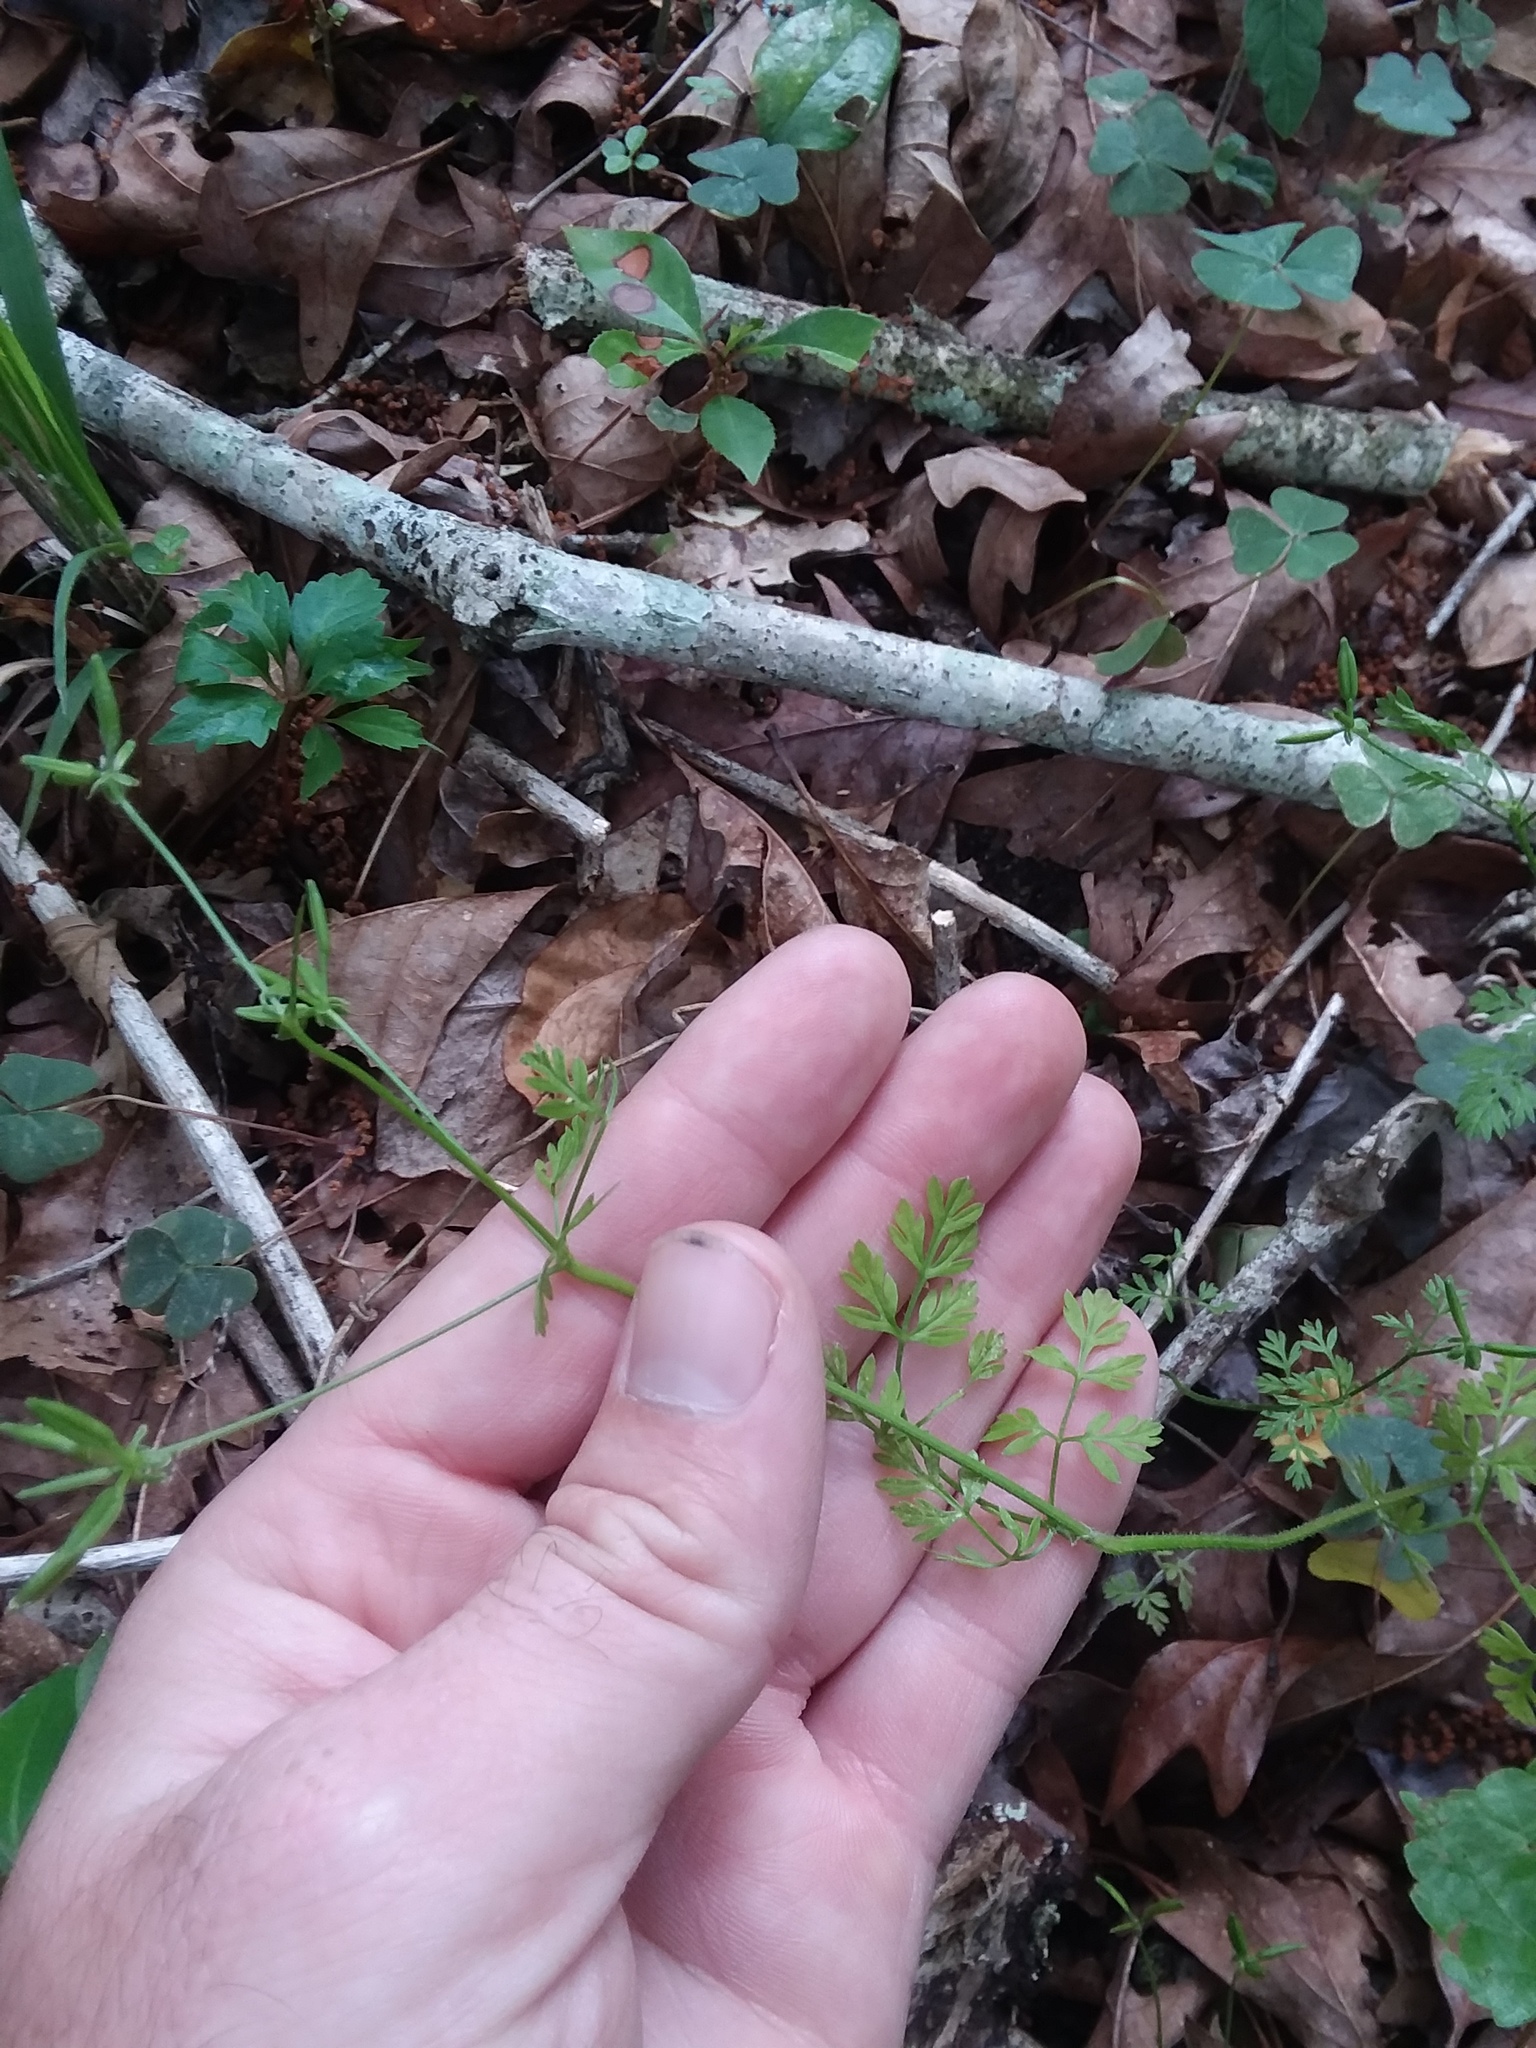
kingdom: Plantae
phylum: Tracheophyta
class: Magnoliopsida
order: Apiales
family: Apiaceae
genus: Chaerophyllum
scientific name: Chaerophyllum tainturieri
